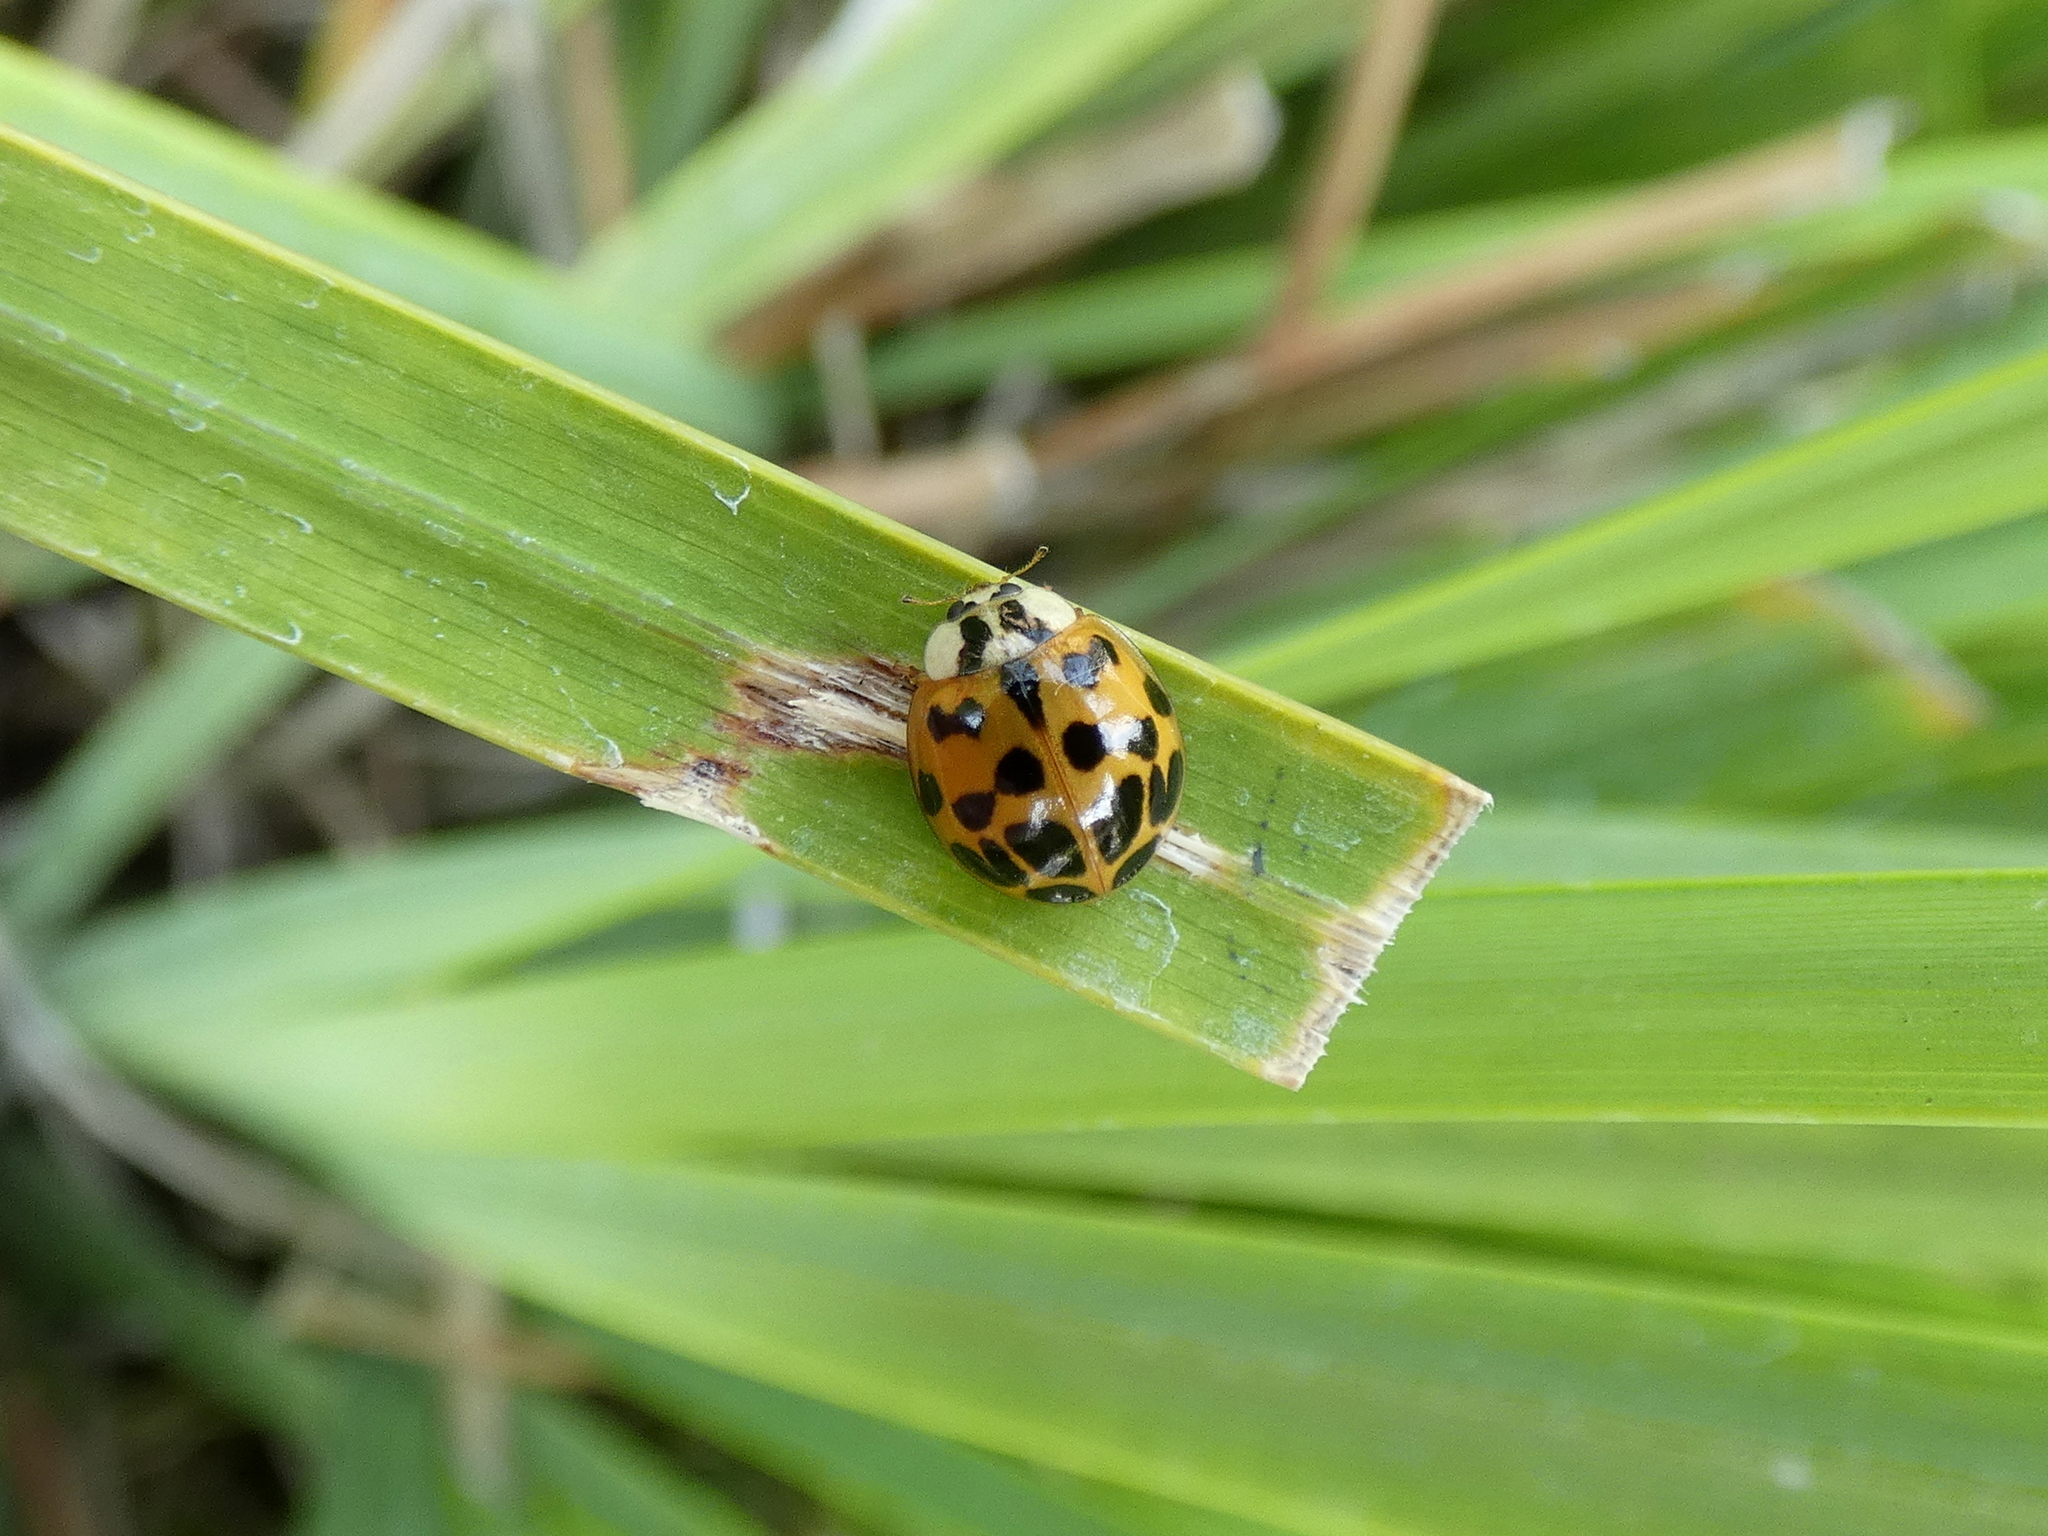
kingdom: Animalia
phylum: Arthropoda
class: Insecta
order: Coleoptera
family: Coccinellidae
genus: Harmonia
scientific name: Harmonia axyridis
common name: Harlequin ladybird
